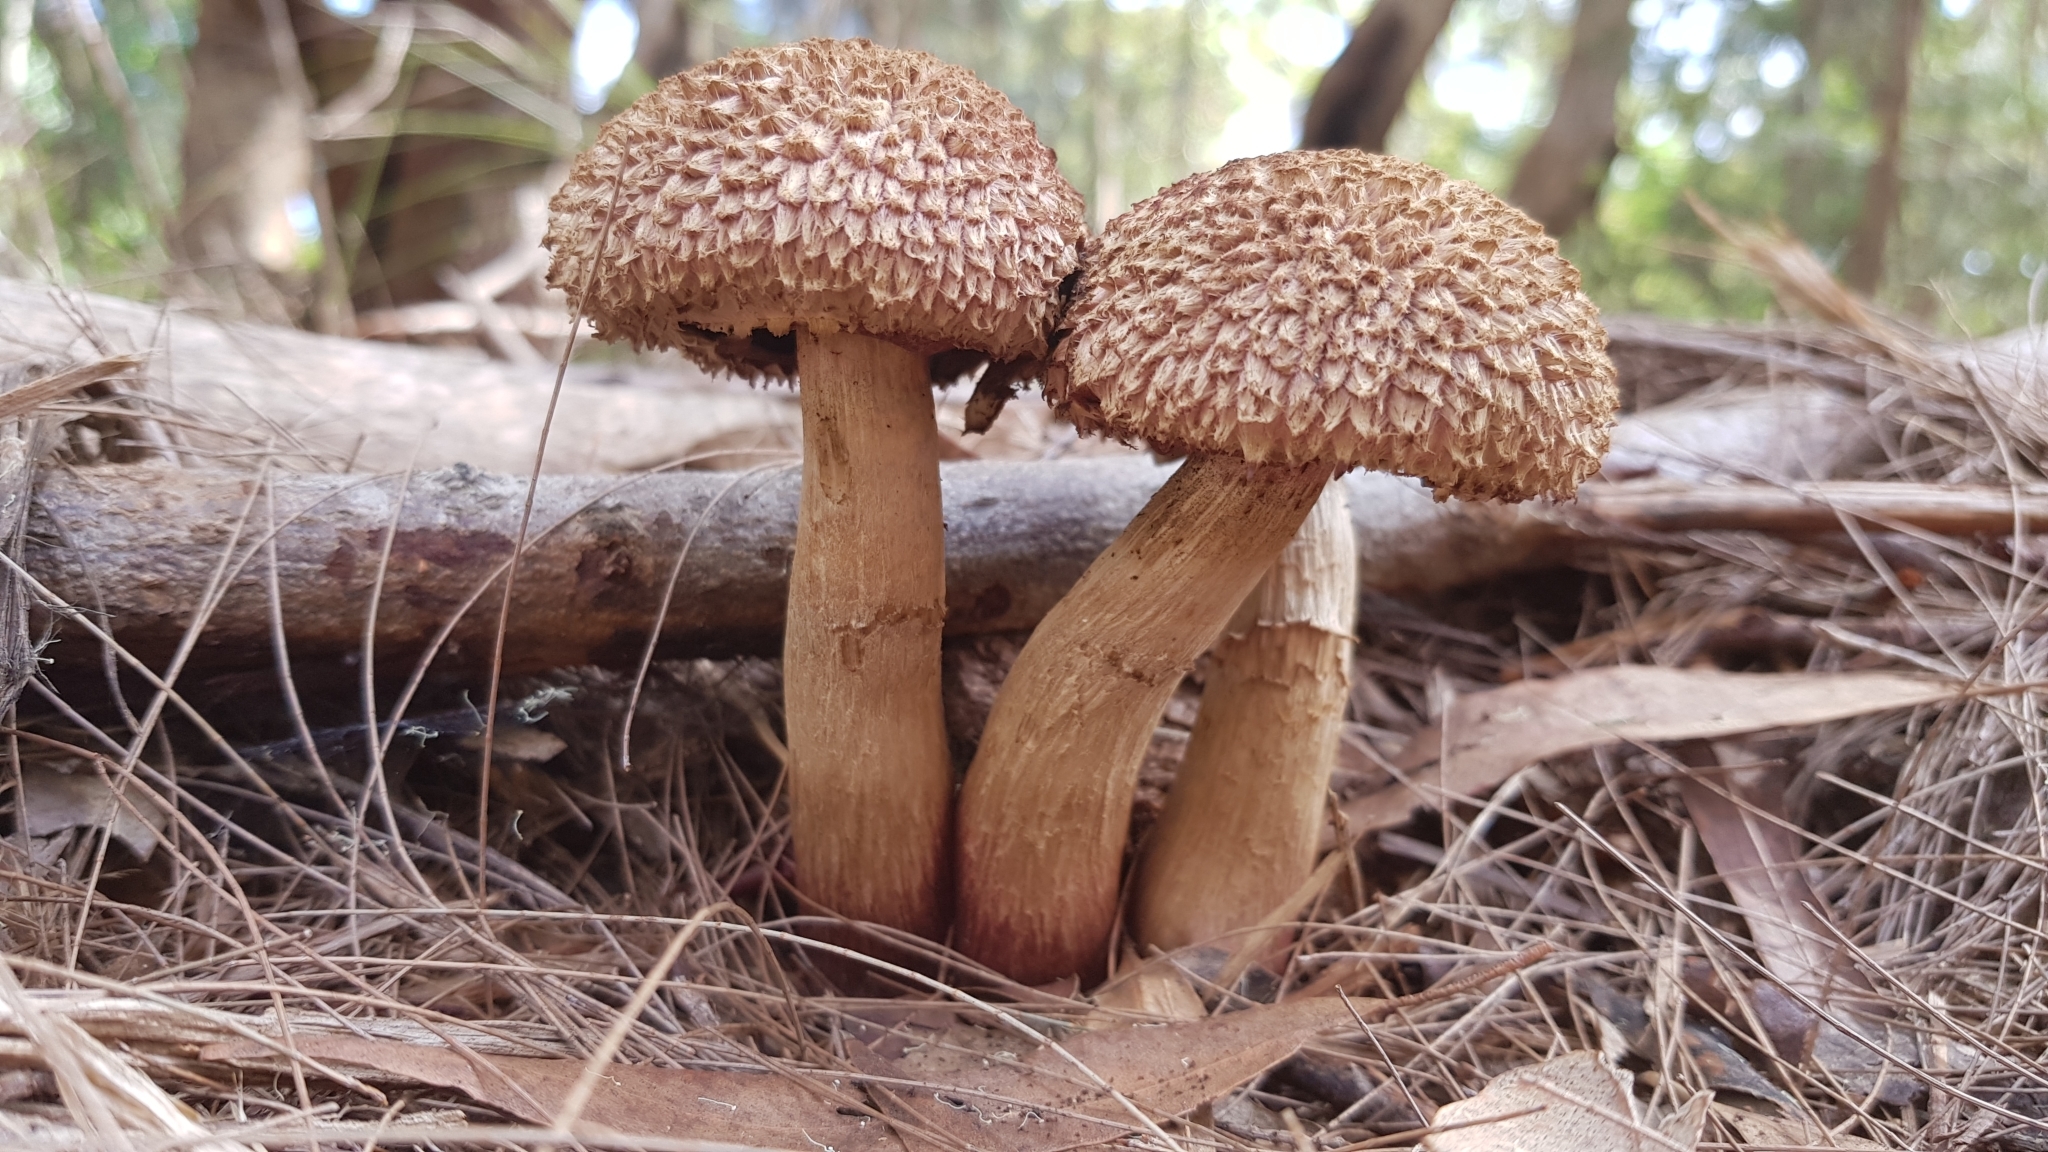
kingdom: Fungi
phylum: Basidiomycota
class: Agaricomycetes
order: Boletales
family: Boletaceae
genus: Strobilomyces
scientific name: Strobilomyces ananiceps
